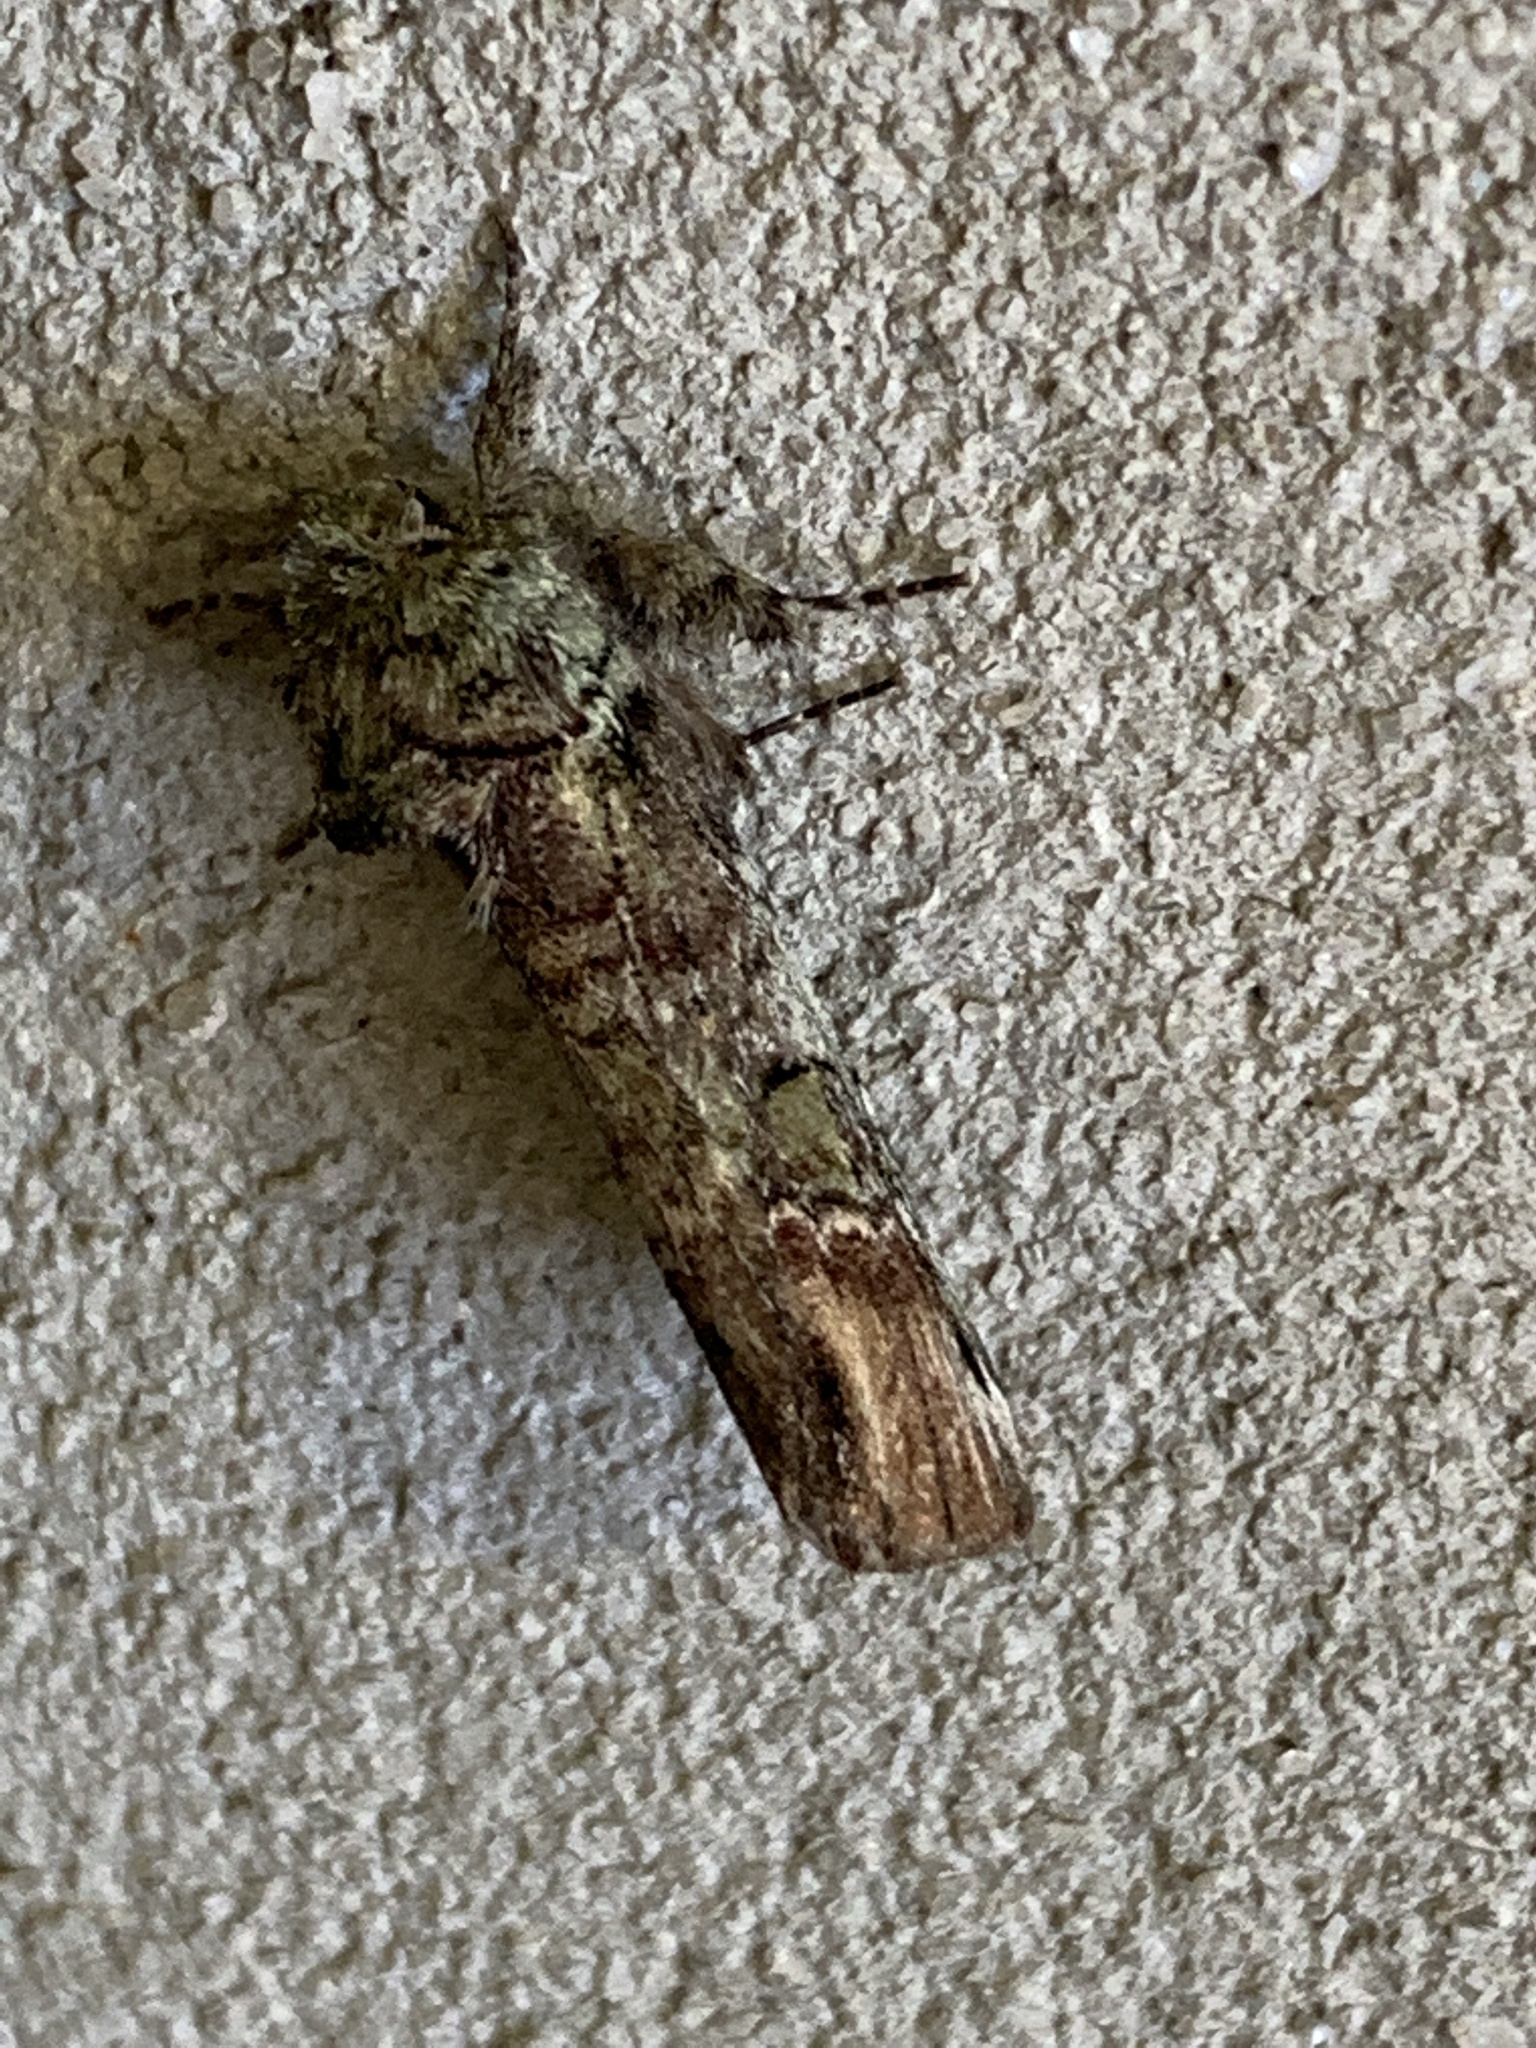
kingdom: Animalia
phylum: Arthropoda
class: Insecta
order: Lepidoptera
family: Notodontidae
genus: Schizura
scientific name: Schizura
